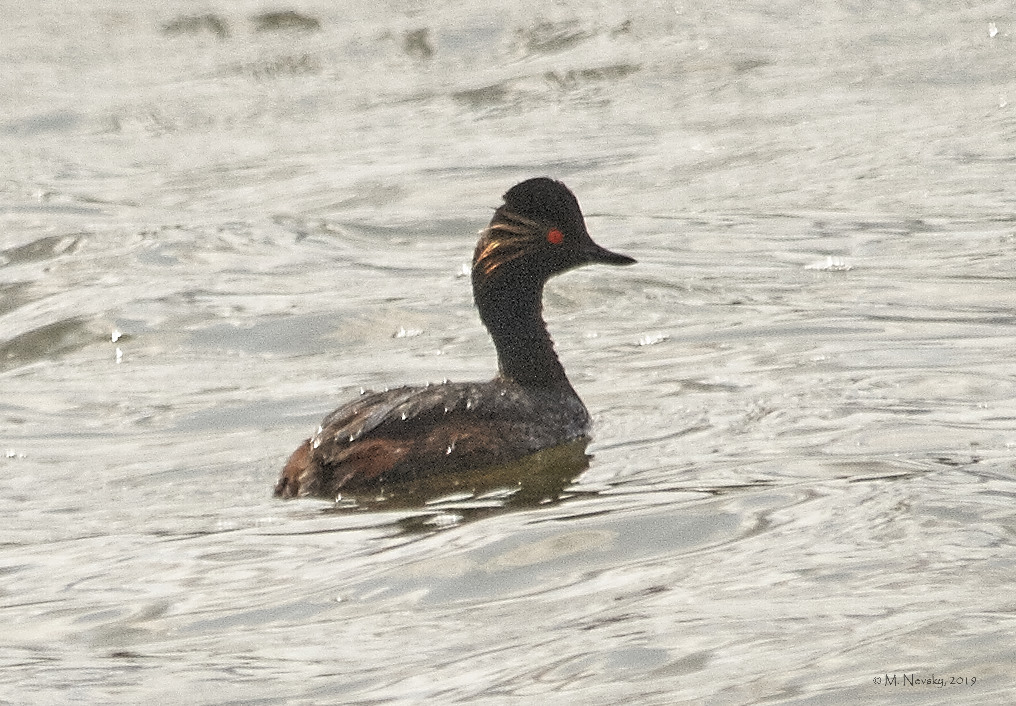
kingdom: Animalia
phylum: Chordata
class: Aves
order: Podicipediformes
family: Podicipedidae
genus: Podiceps
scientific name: Podiceps nigricollis
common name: Black-necked grebe
